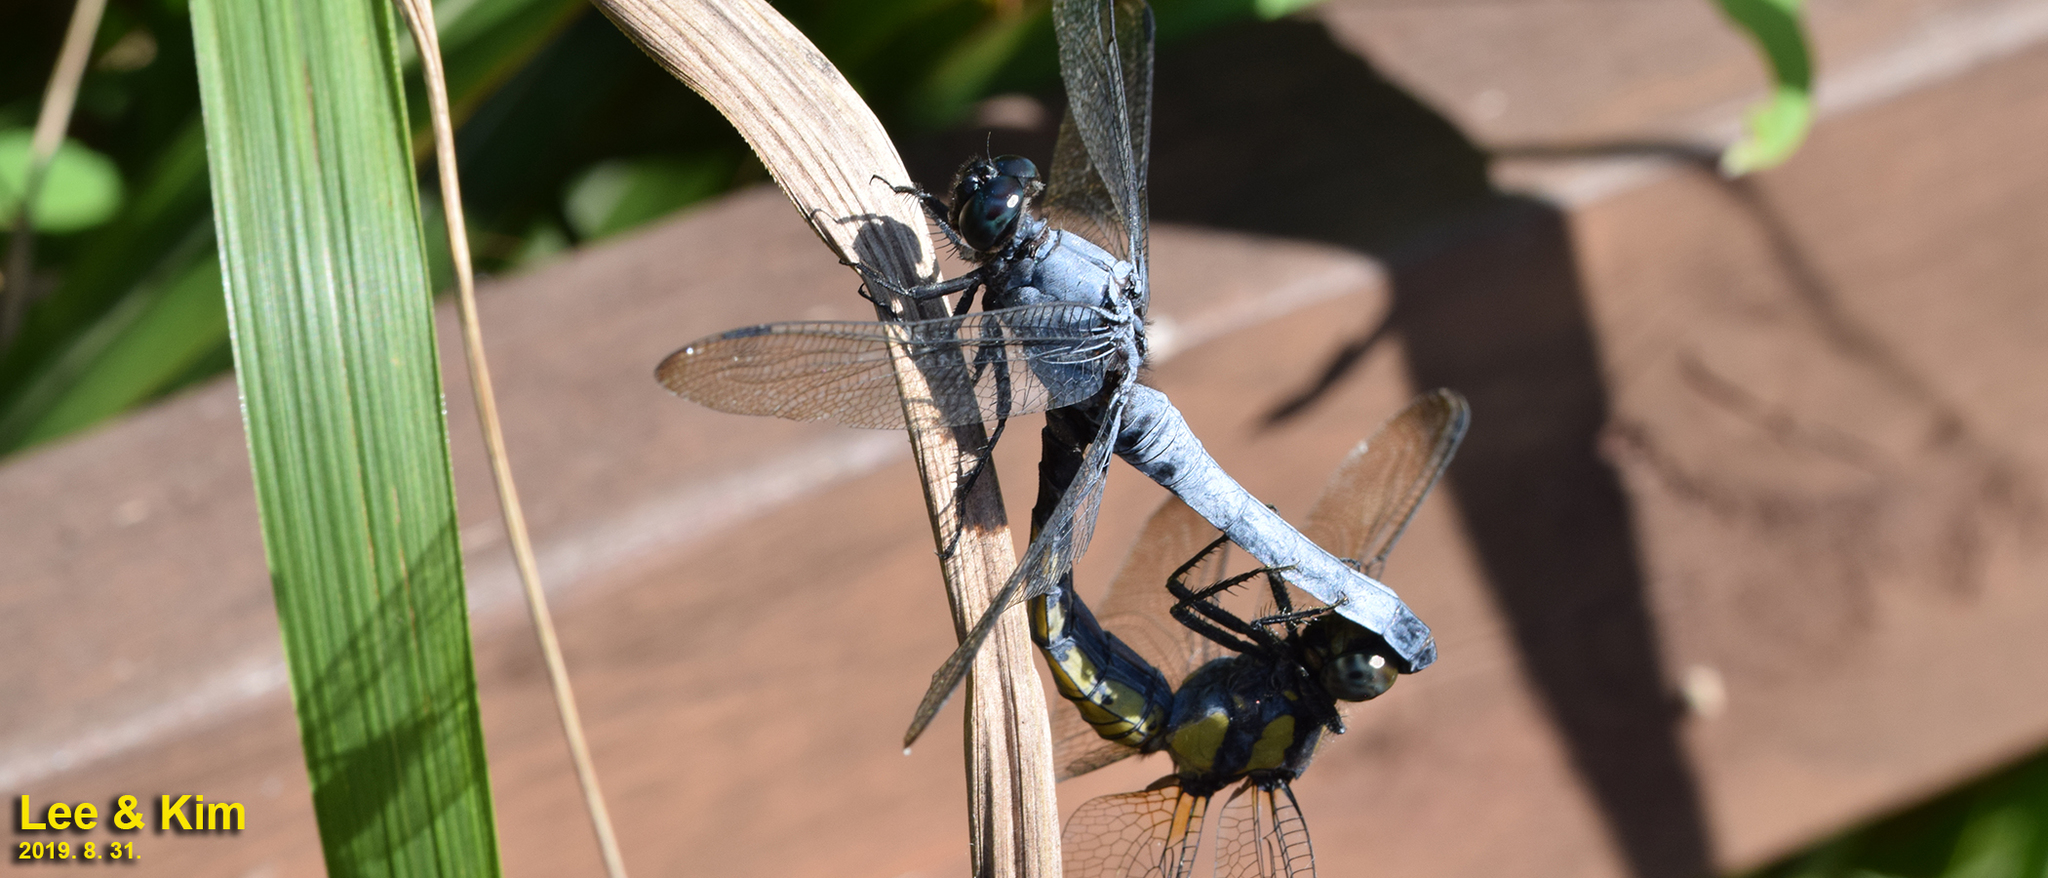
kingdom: Animalia
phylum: Arthropoda
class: Insecta
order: Odonata
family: Libellulidae
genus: Orthetrum
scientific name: Orthetrum melania
